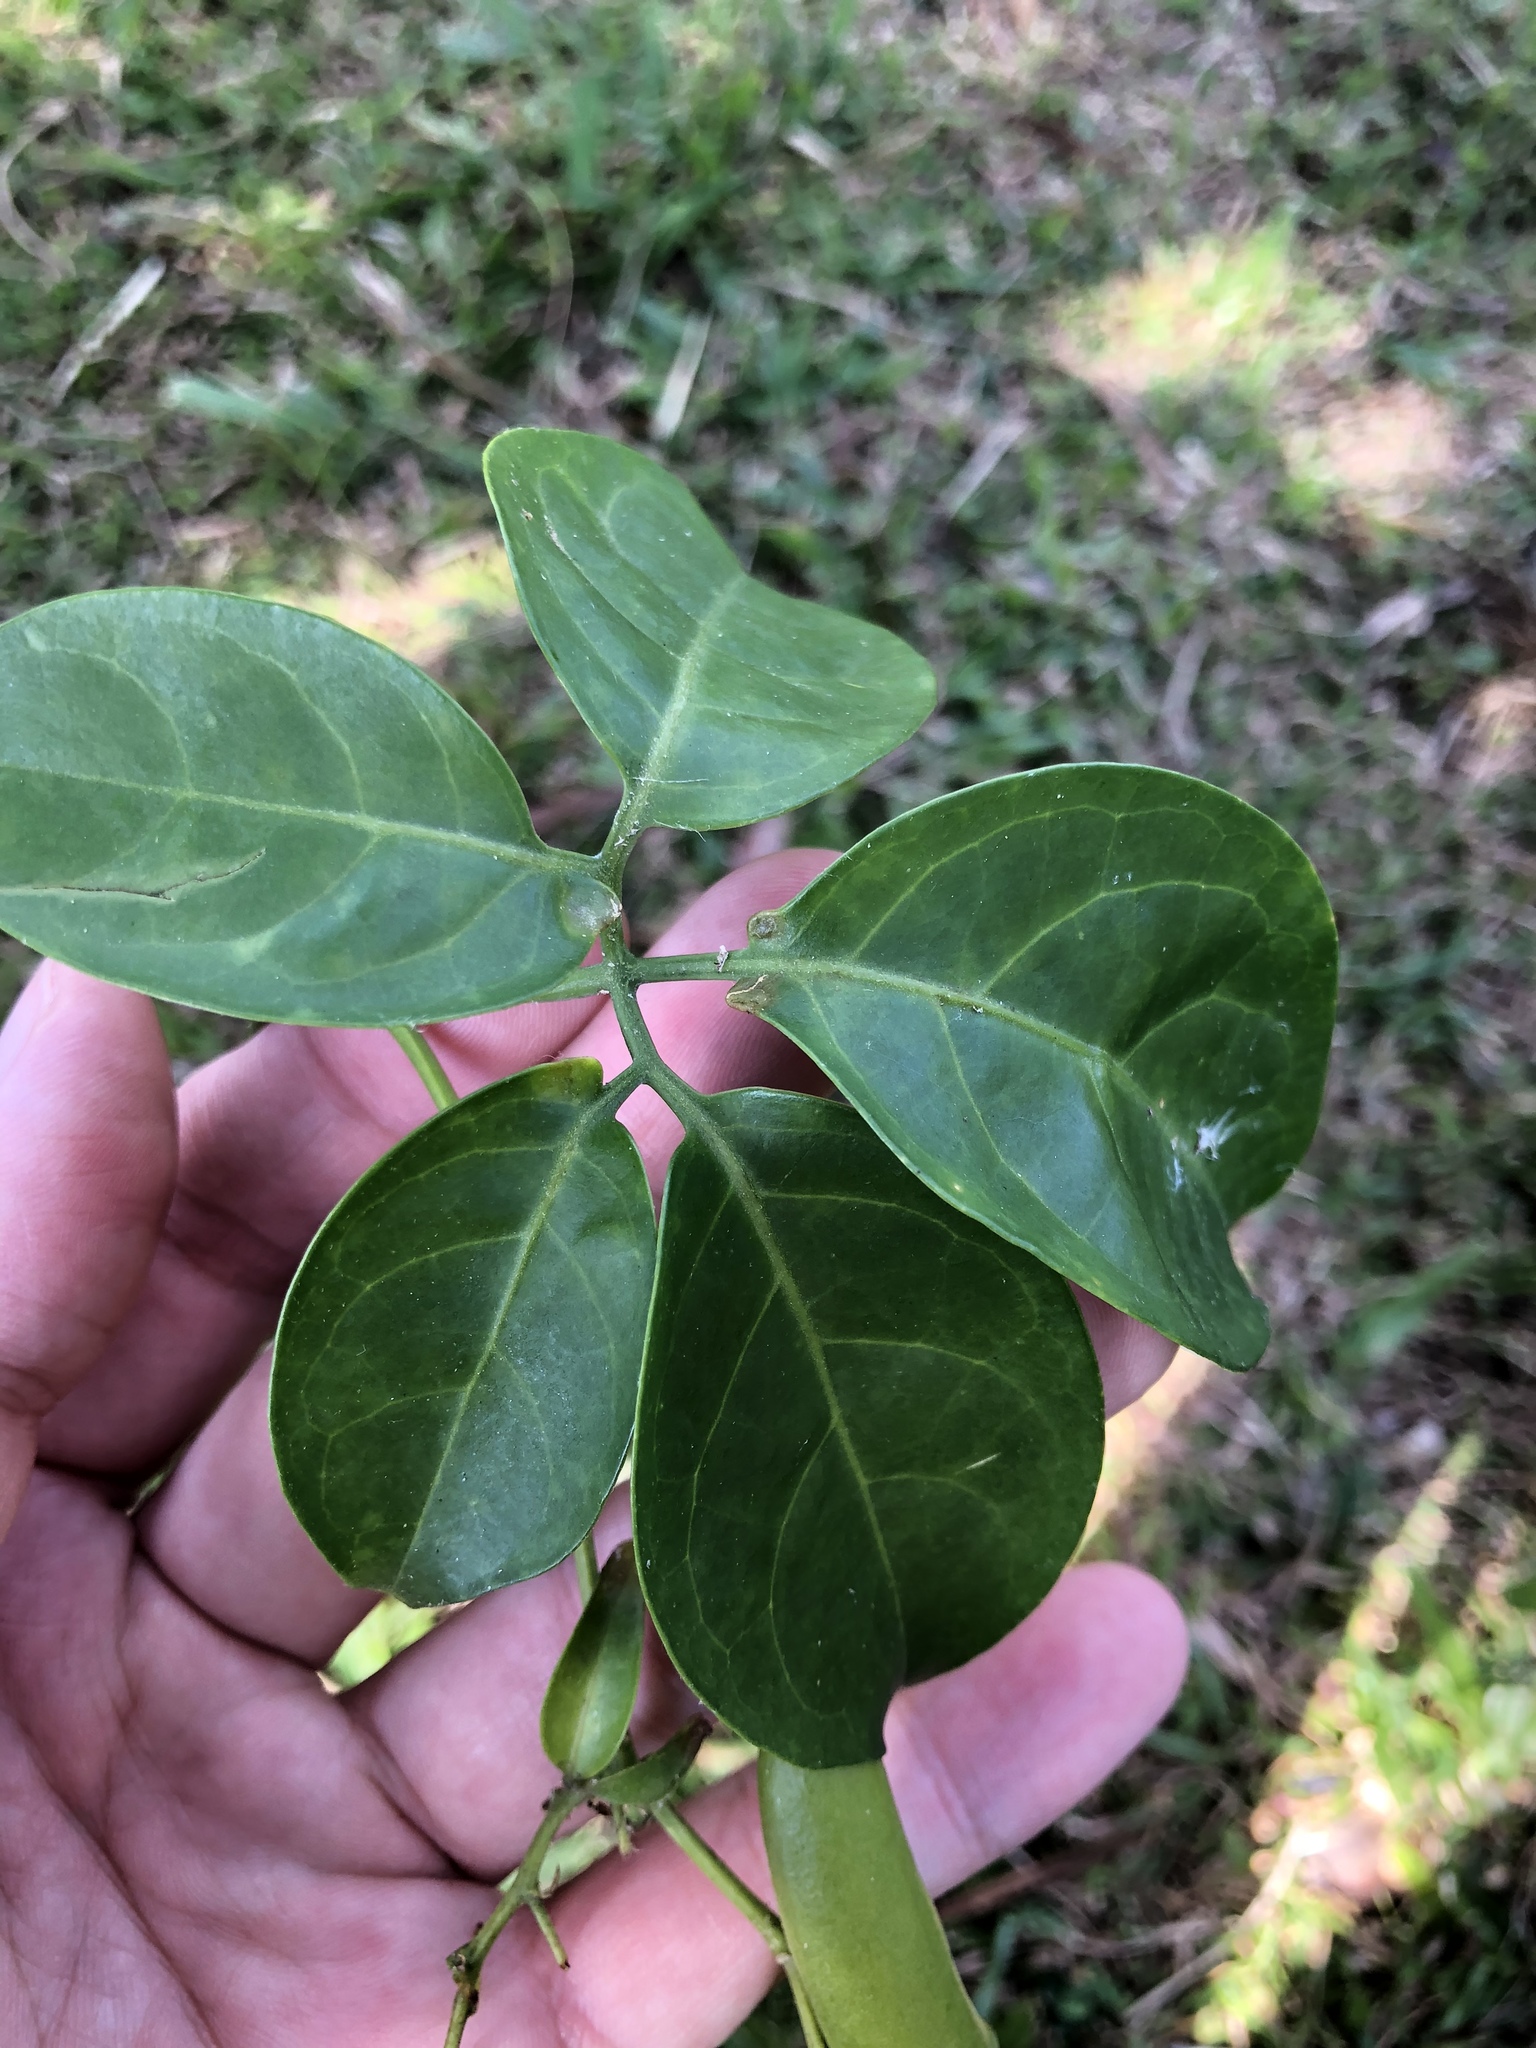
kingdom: Plantae
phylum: Tracheophyta
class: Magnoliopsida
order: Cucurbitales
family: Cucurbitaceae
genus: Neoalsomitra
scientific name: Neoalsomitra clavigera
